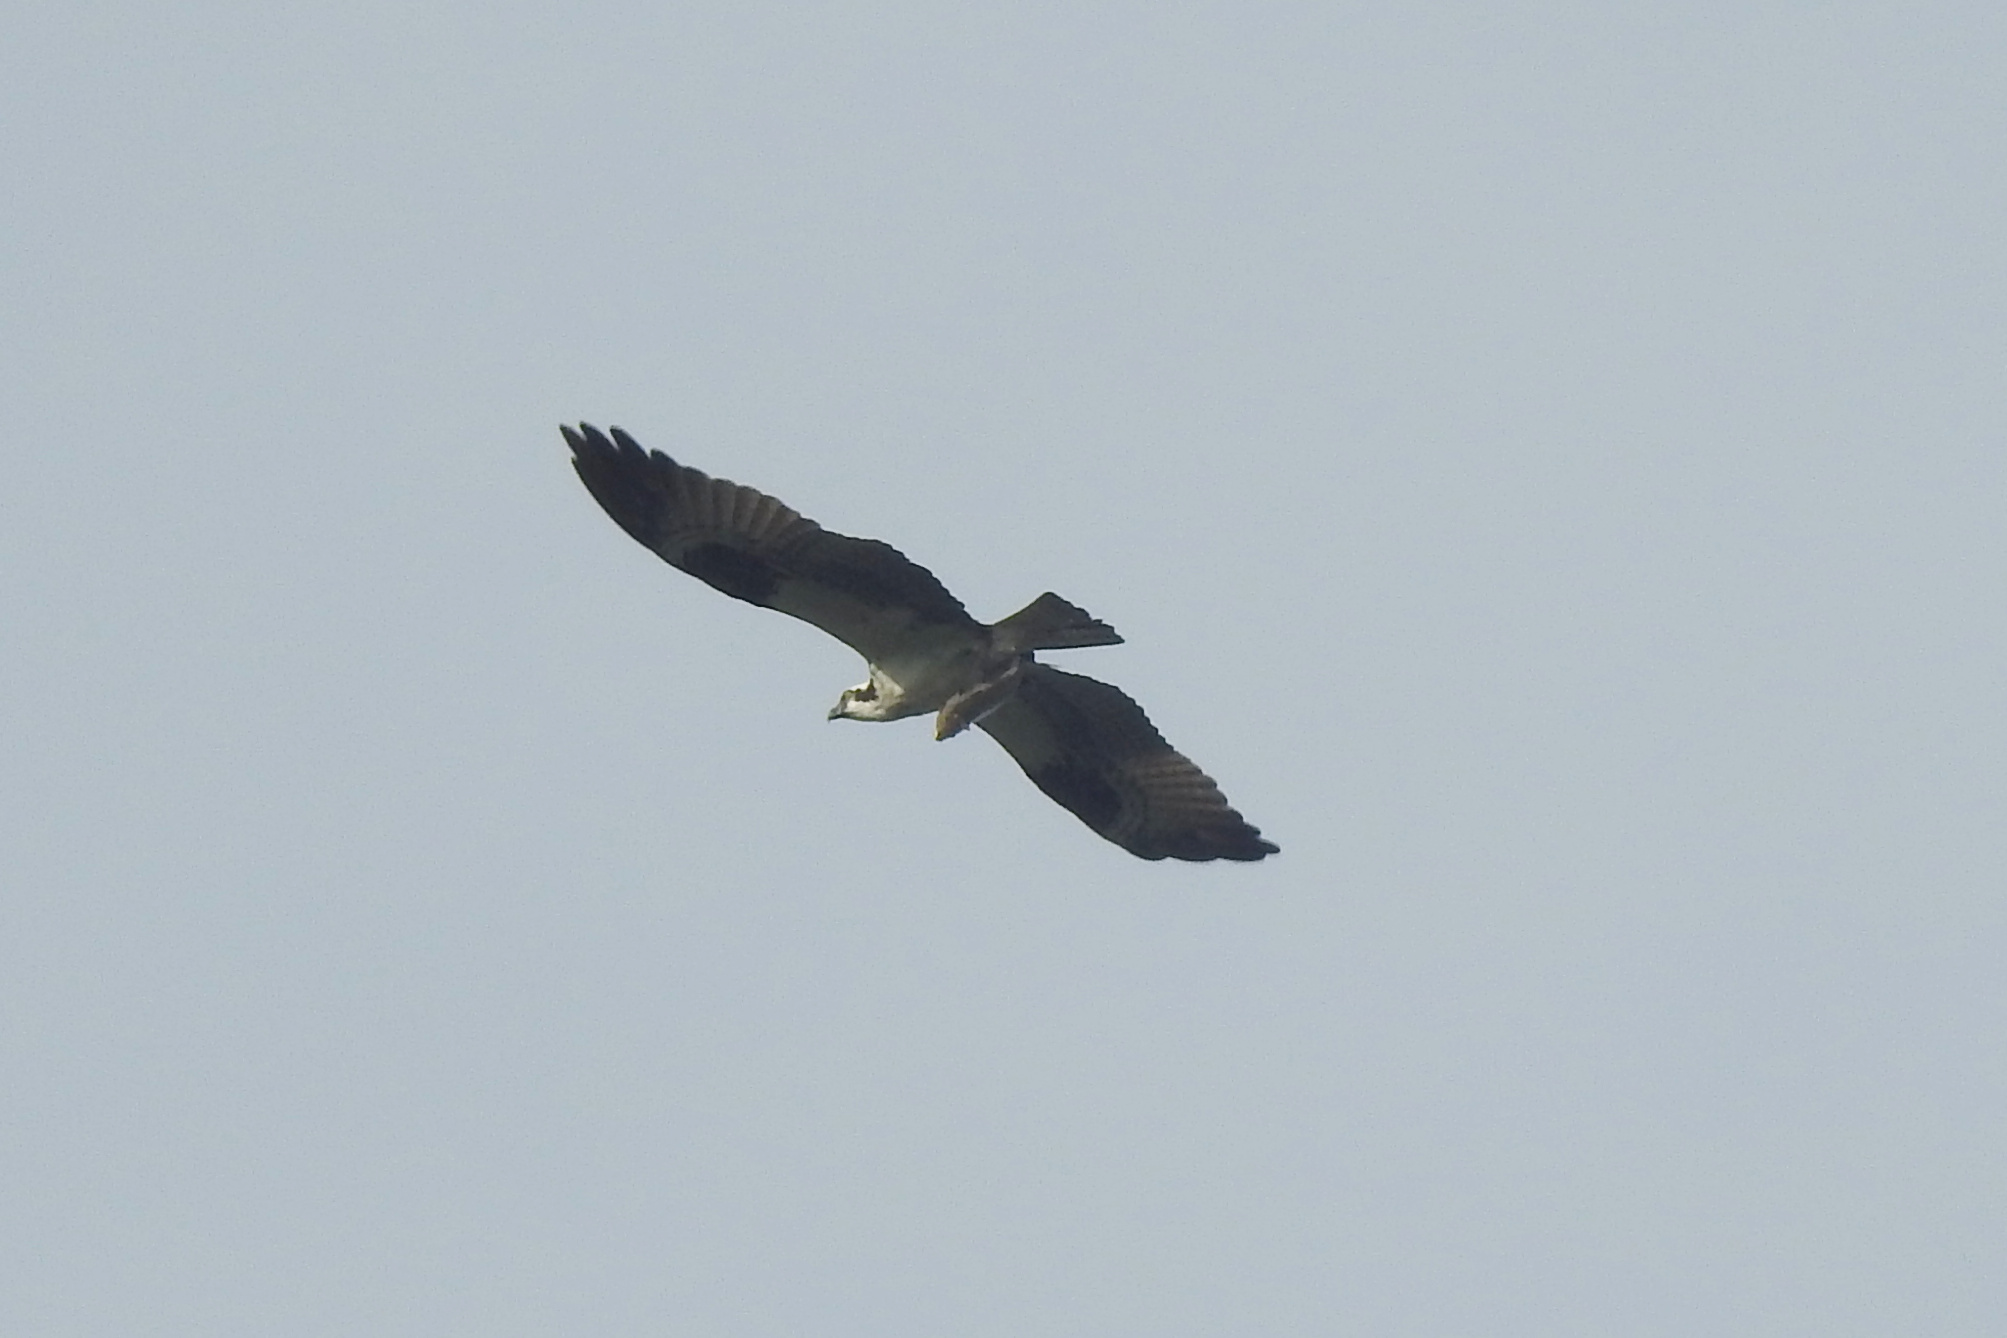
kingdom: Animalia
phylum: Chordata
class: Aves
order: Accipitriformes
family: Pandionidae
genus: Pandion
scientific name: Pandion haliaetus
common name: Osprey
